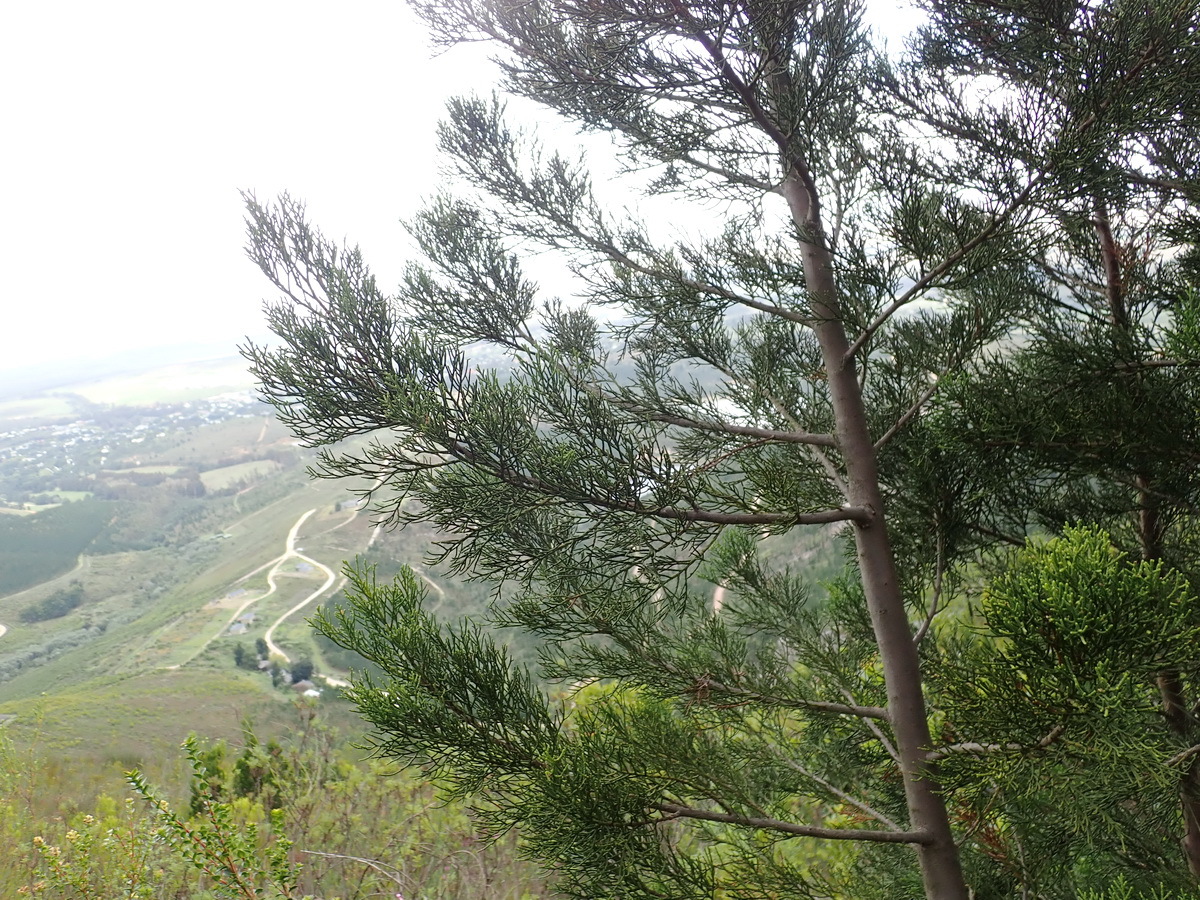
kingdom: Plantae
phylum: Tracheophyta
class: Pinopsida
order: Pinales
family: Cupressaceae
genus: Widdringtonia
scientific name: Widdringtonia nodiflora
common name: Cape cypress
